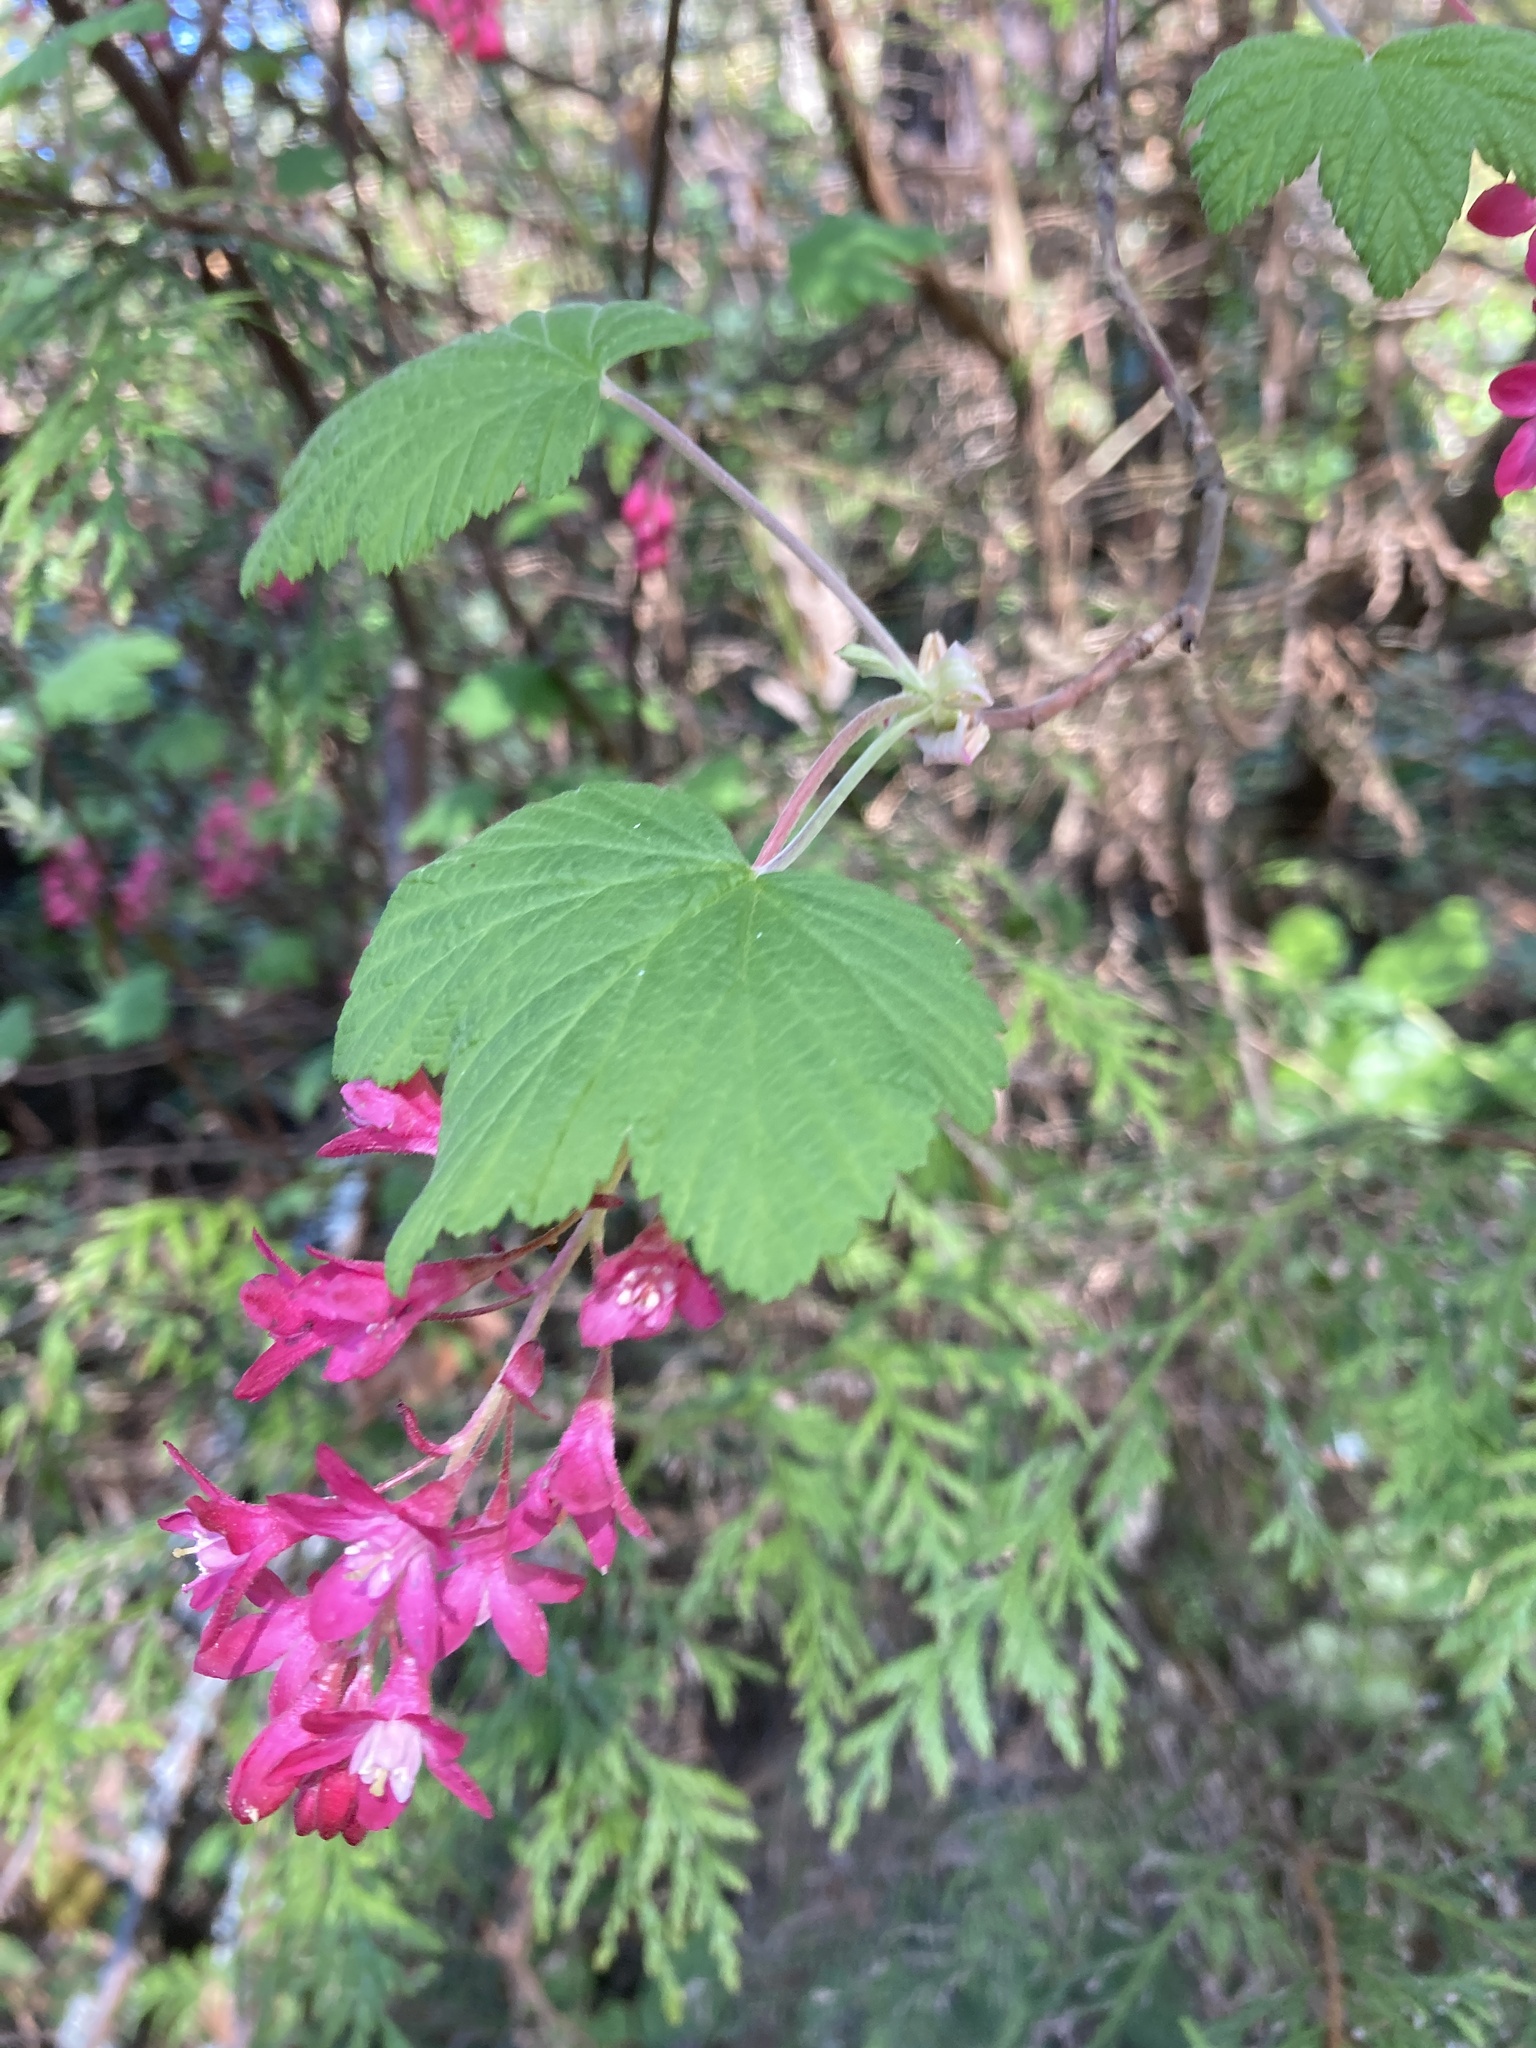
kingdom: Plantae
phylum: Tracheophyta
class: Magnoliopsida
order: Saxifragales
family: Grossulariaceae
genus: Ribes
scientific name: Ribes sanguineum
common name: Flowering currant
